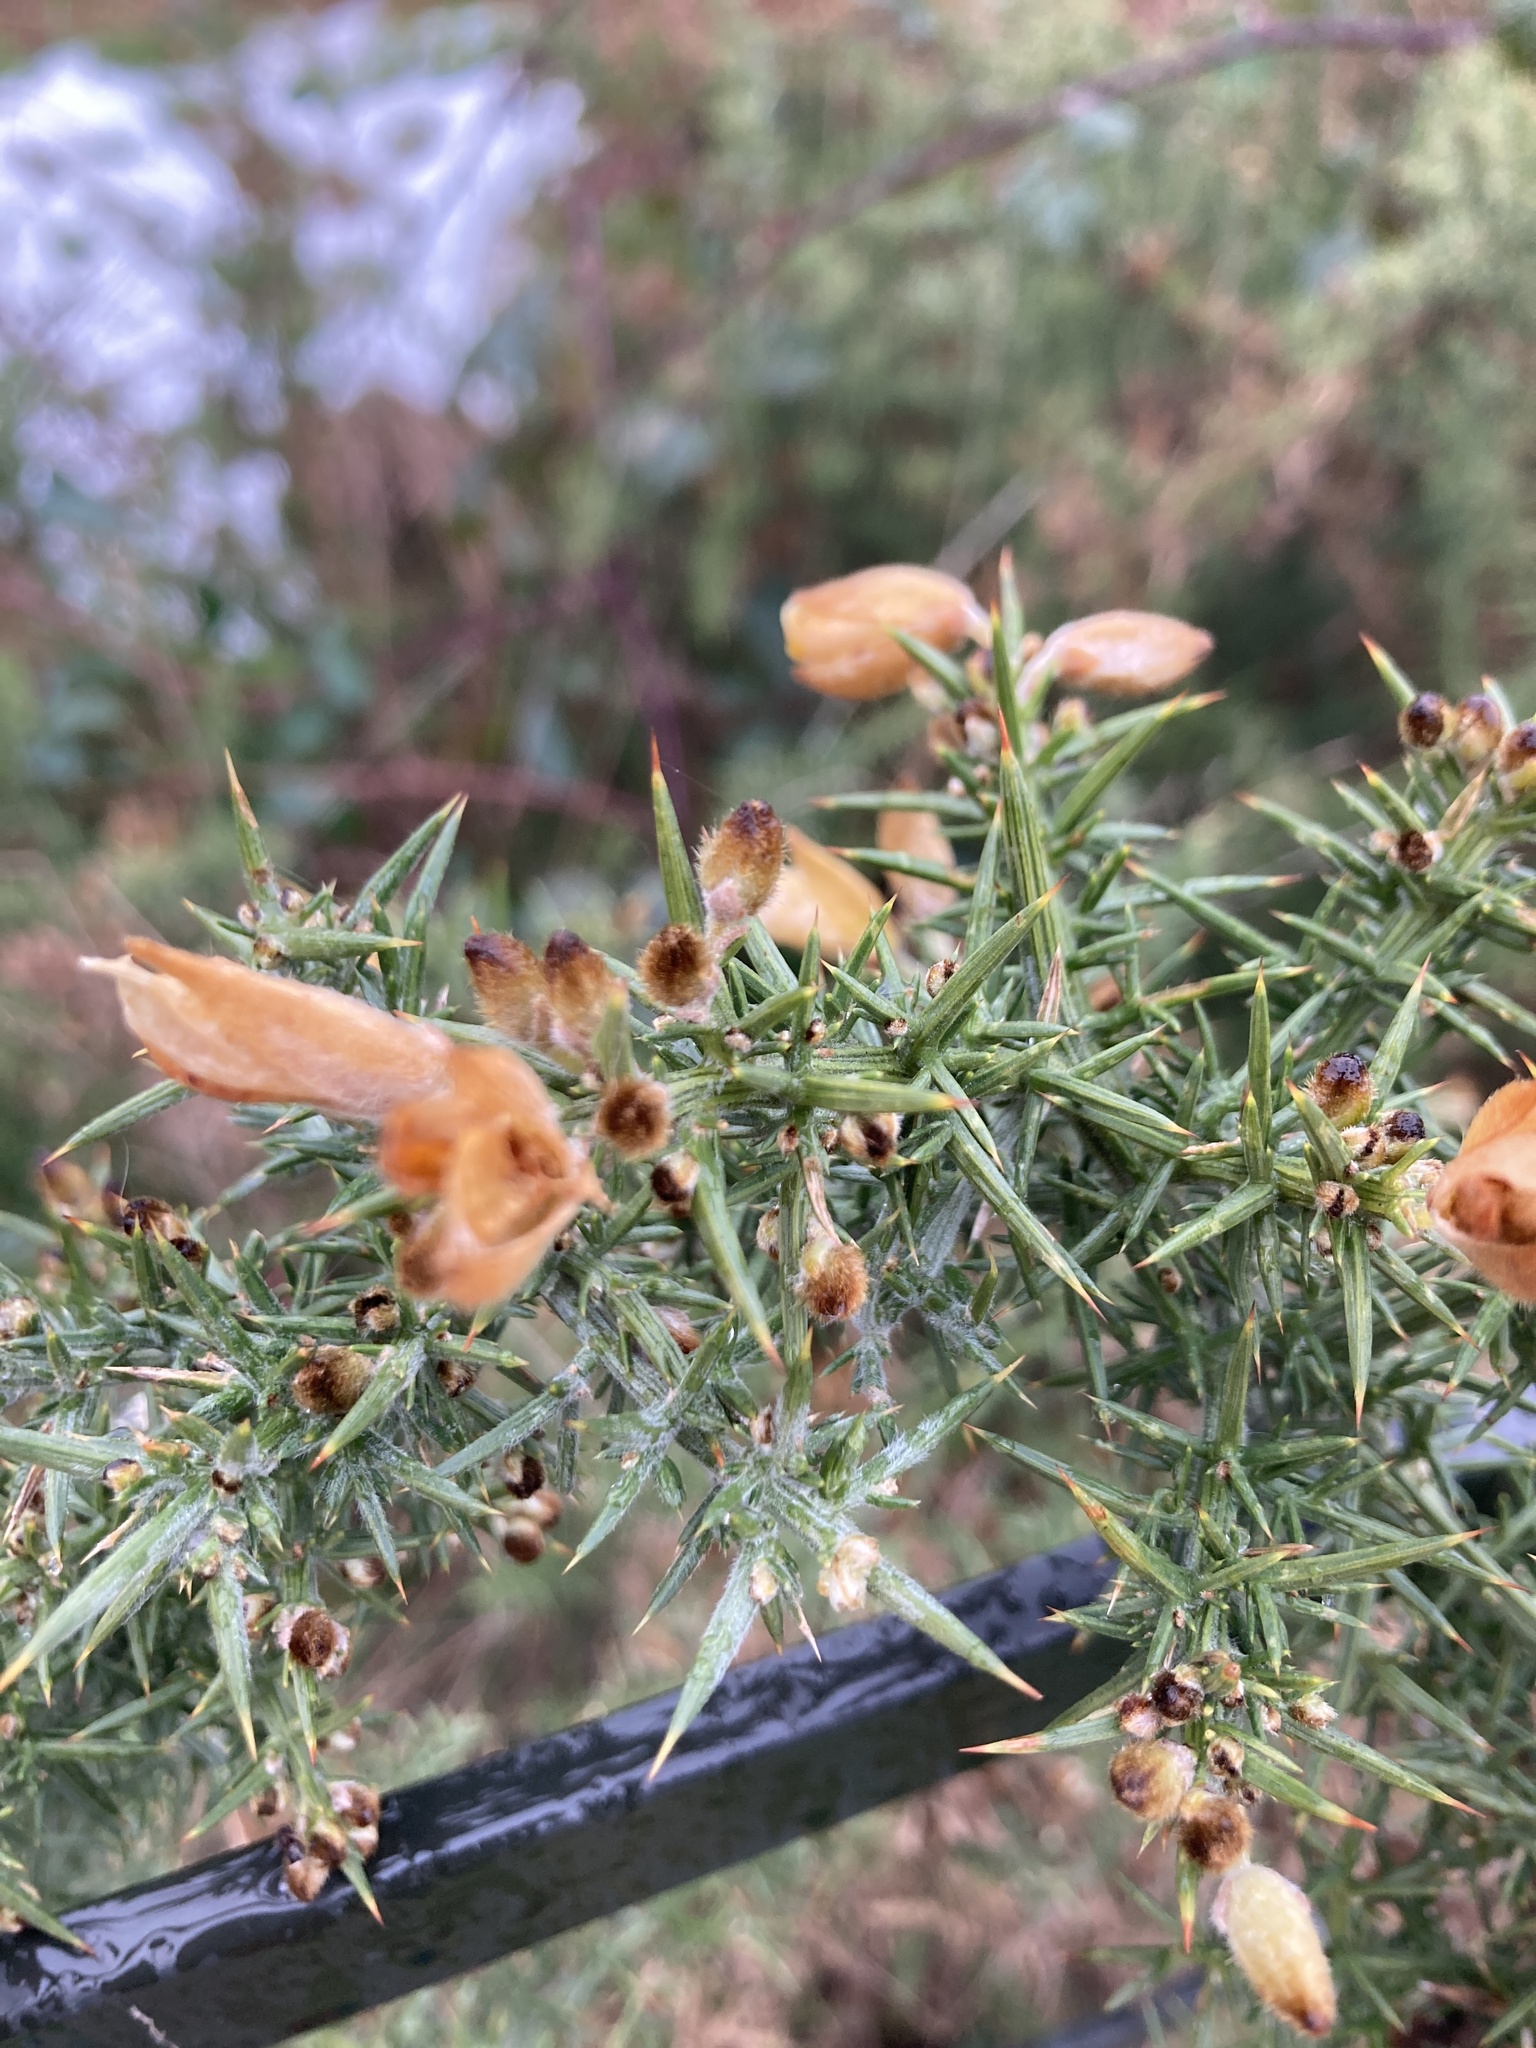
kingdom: Plantae
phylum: Tracheophyta
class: Magnoliopsida
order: Fabales
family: Fabaceae
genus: Ulex
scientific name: Ulex europaeus
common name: Common gorse
